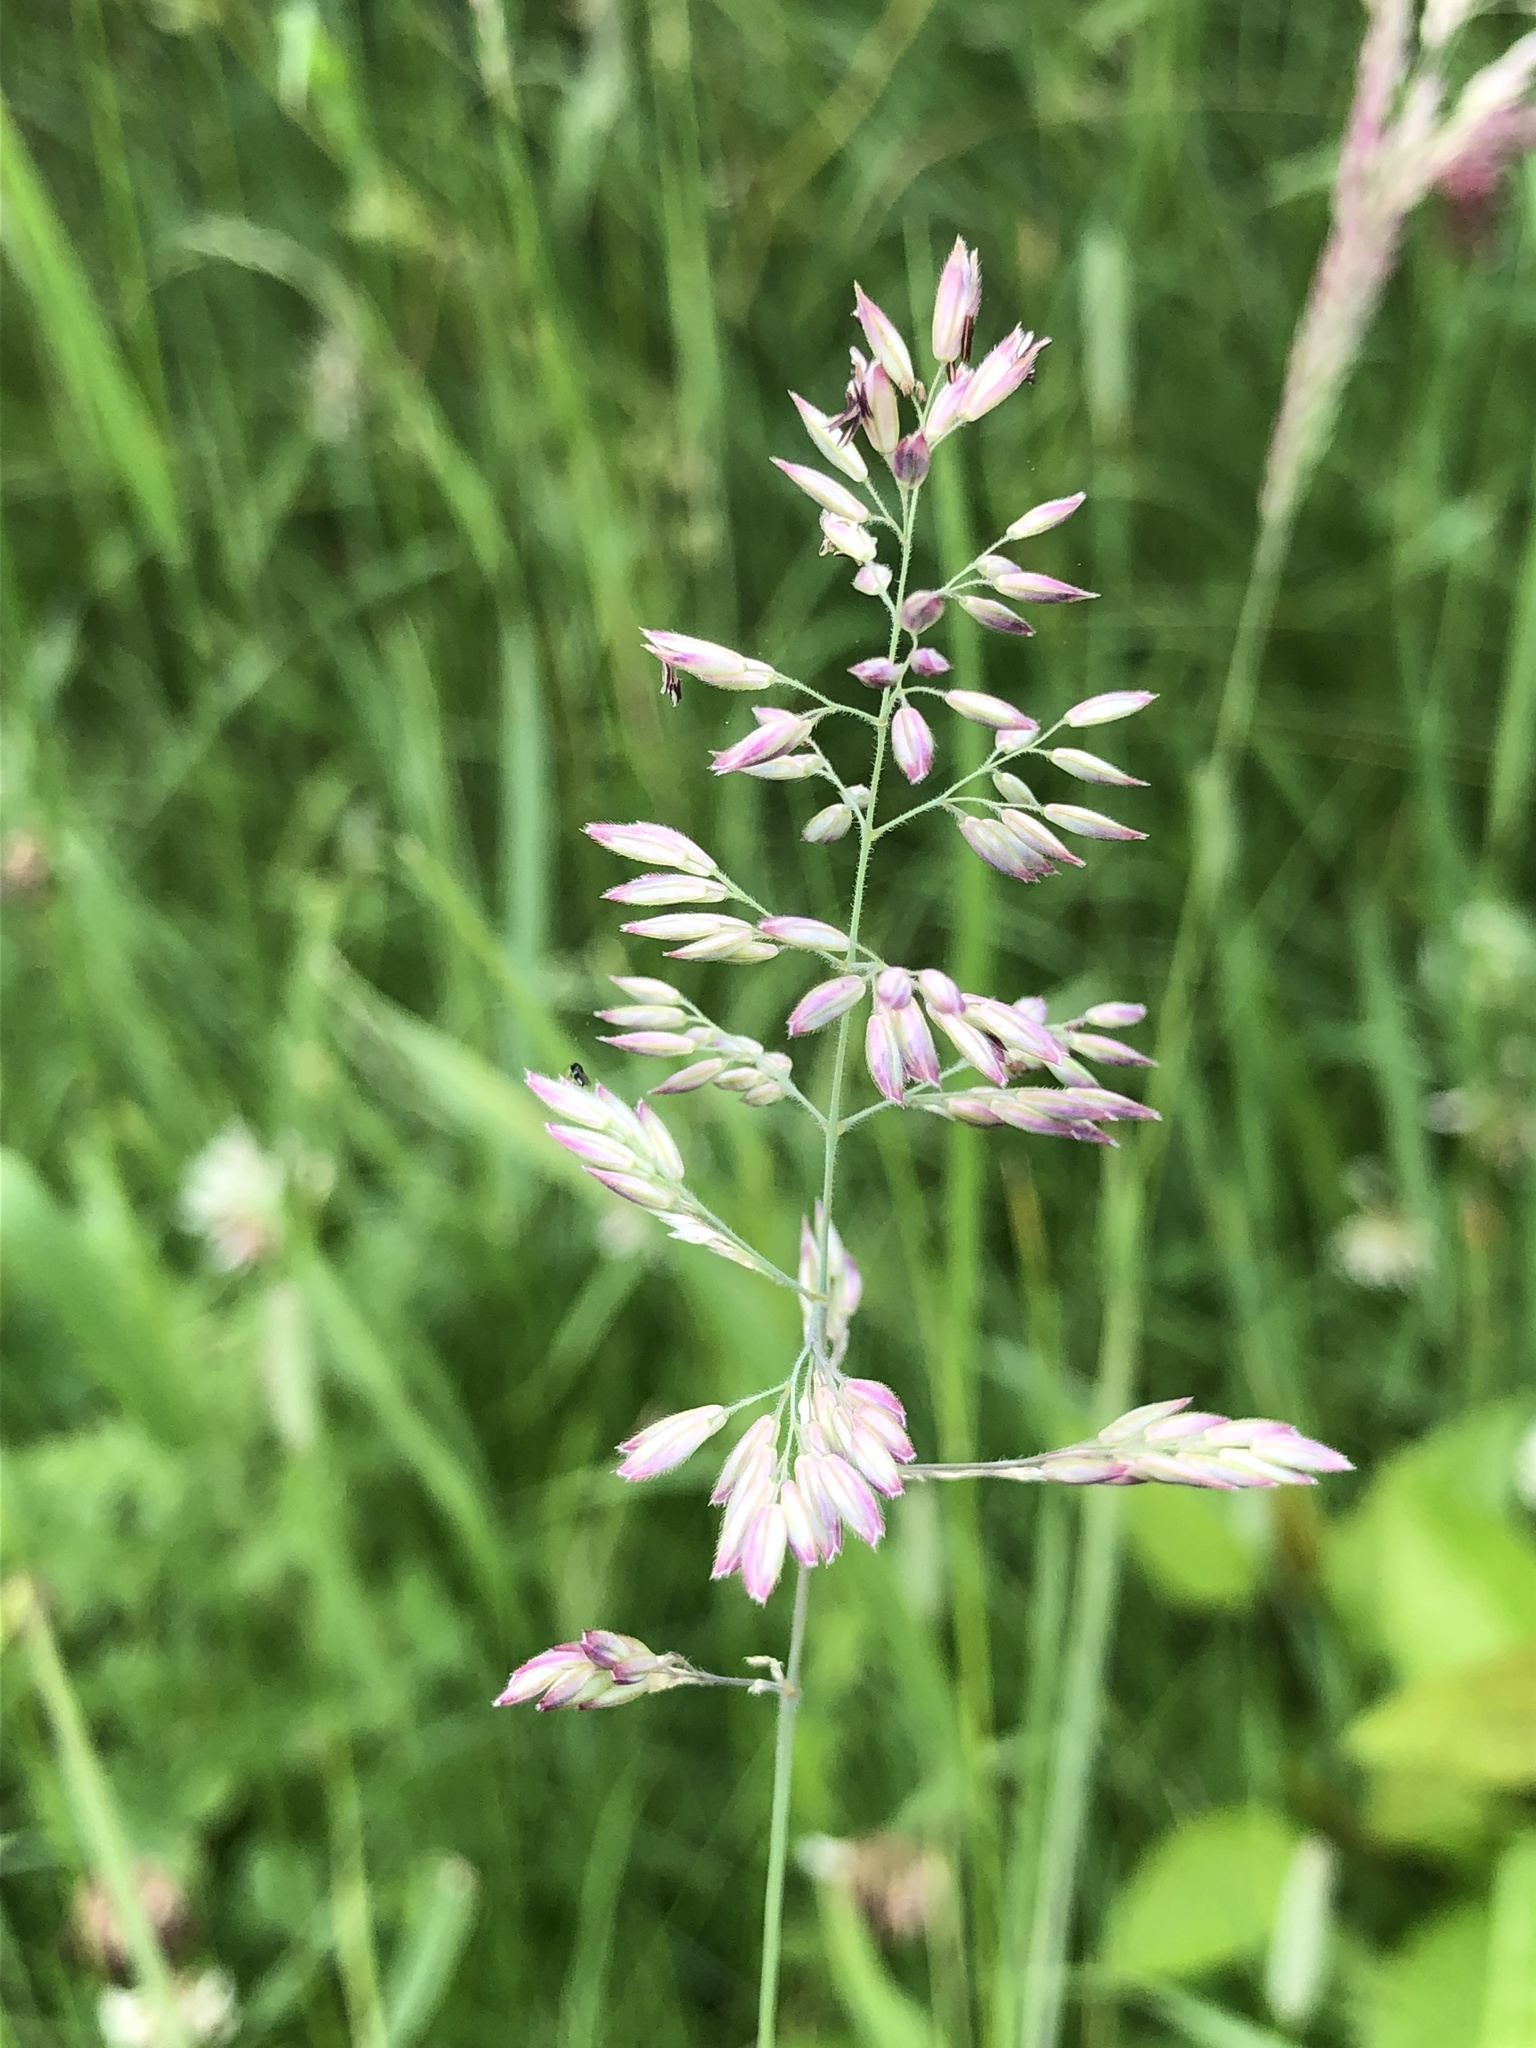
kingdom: Plantae
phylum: Tracheophyta
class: Liliopsida
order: Poales
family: Poaceae
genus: Holcus
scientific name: Holcus lanatus
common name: Yorkshire-fog
